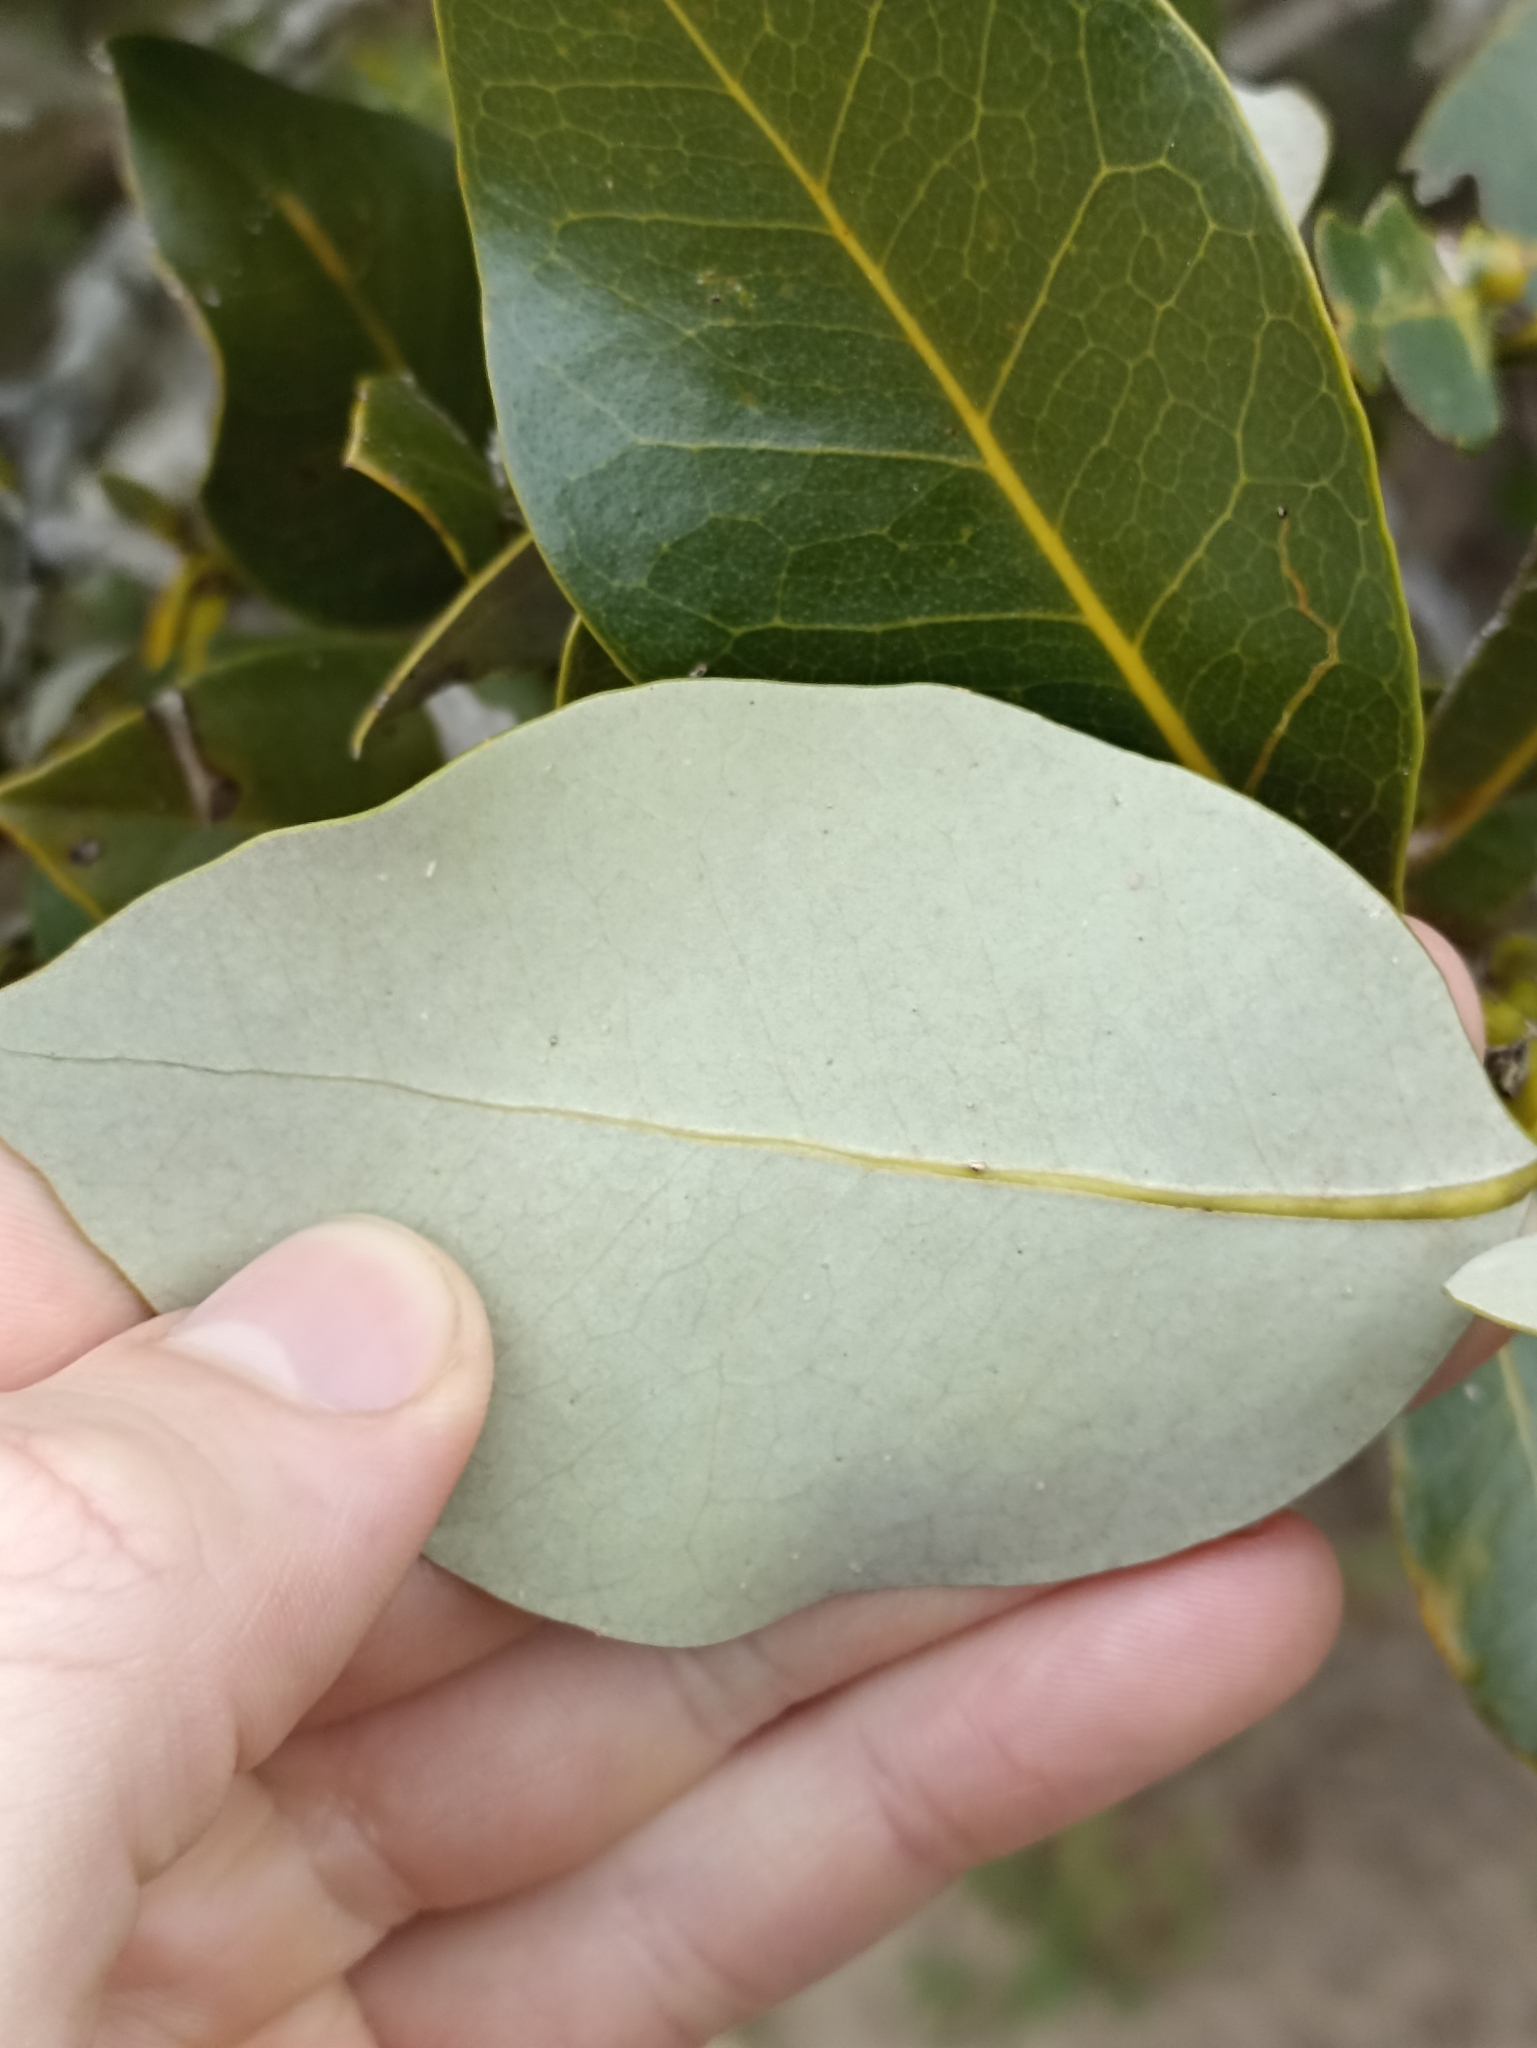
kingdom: Plantae
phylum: Tracheophyta
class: Magnoliopsida
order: Lamiales
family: Acanthaceae
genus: Avicennia
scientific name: Avicennia marina
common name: Gray mangrove
